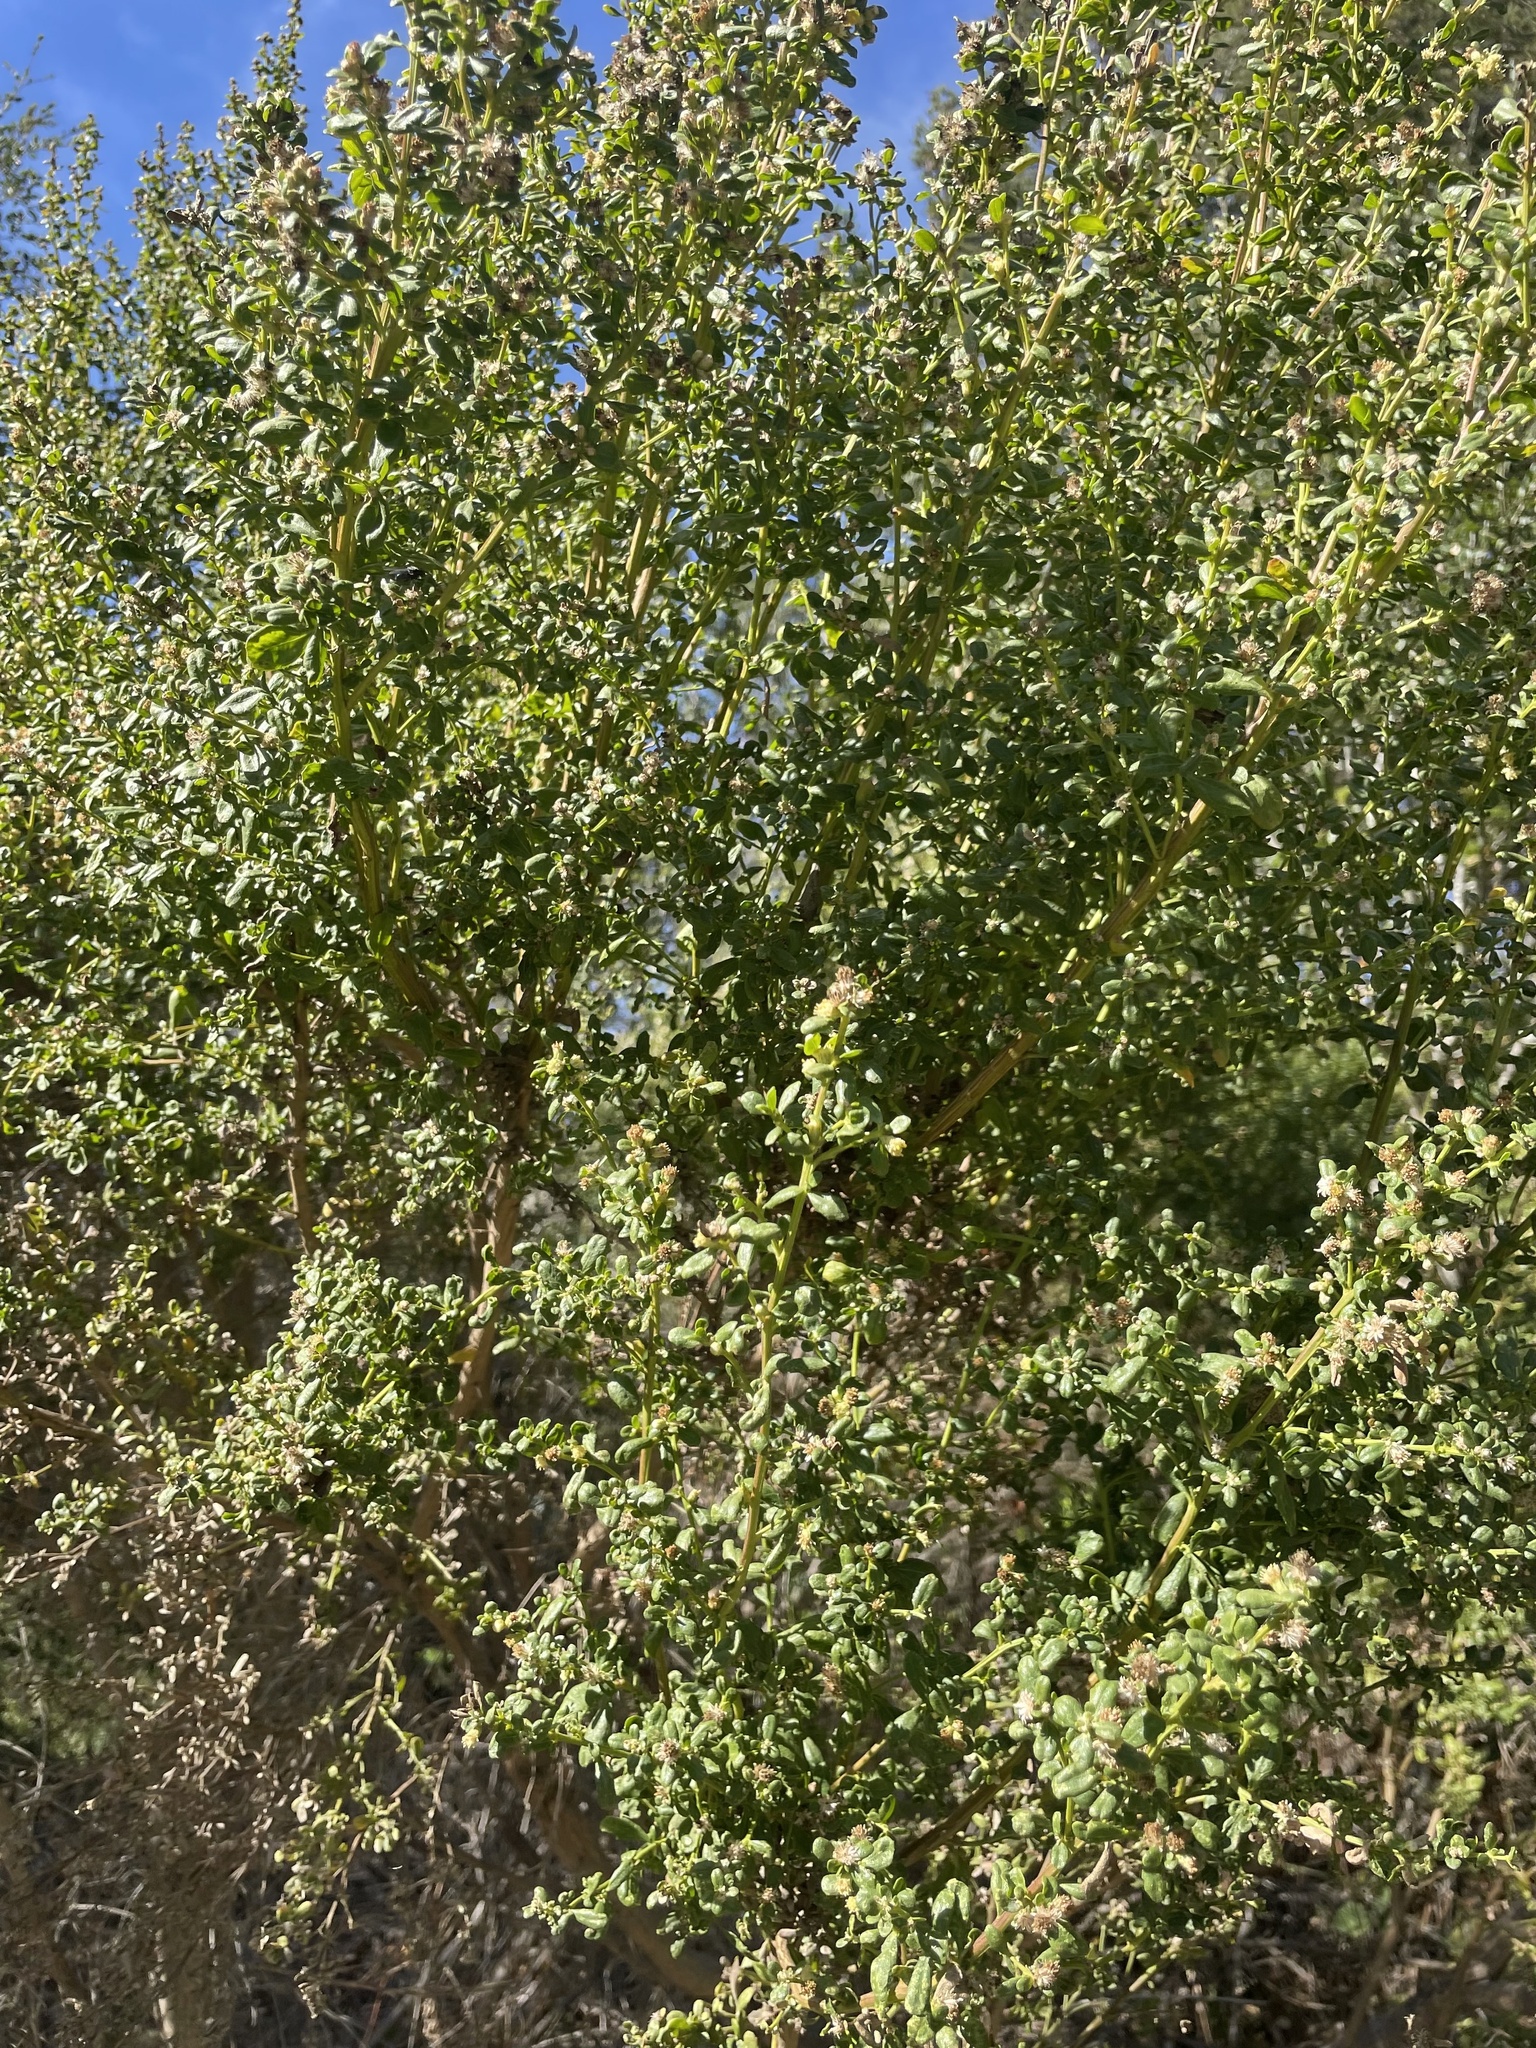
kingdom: Plantae
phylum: Tracheophyta
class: Magnoliopsida
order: Asterales
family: Asteraceae
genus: Baccharis
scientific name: Baccharis pilularis
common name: Coyotebrush
